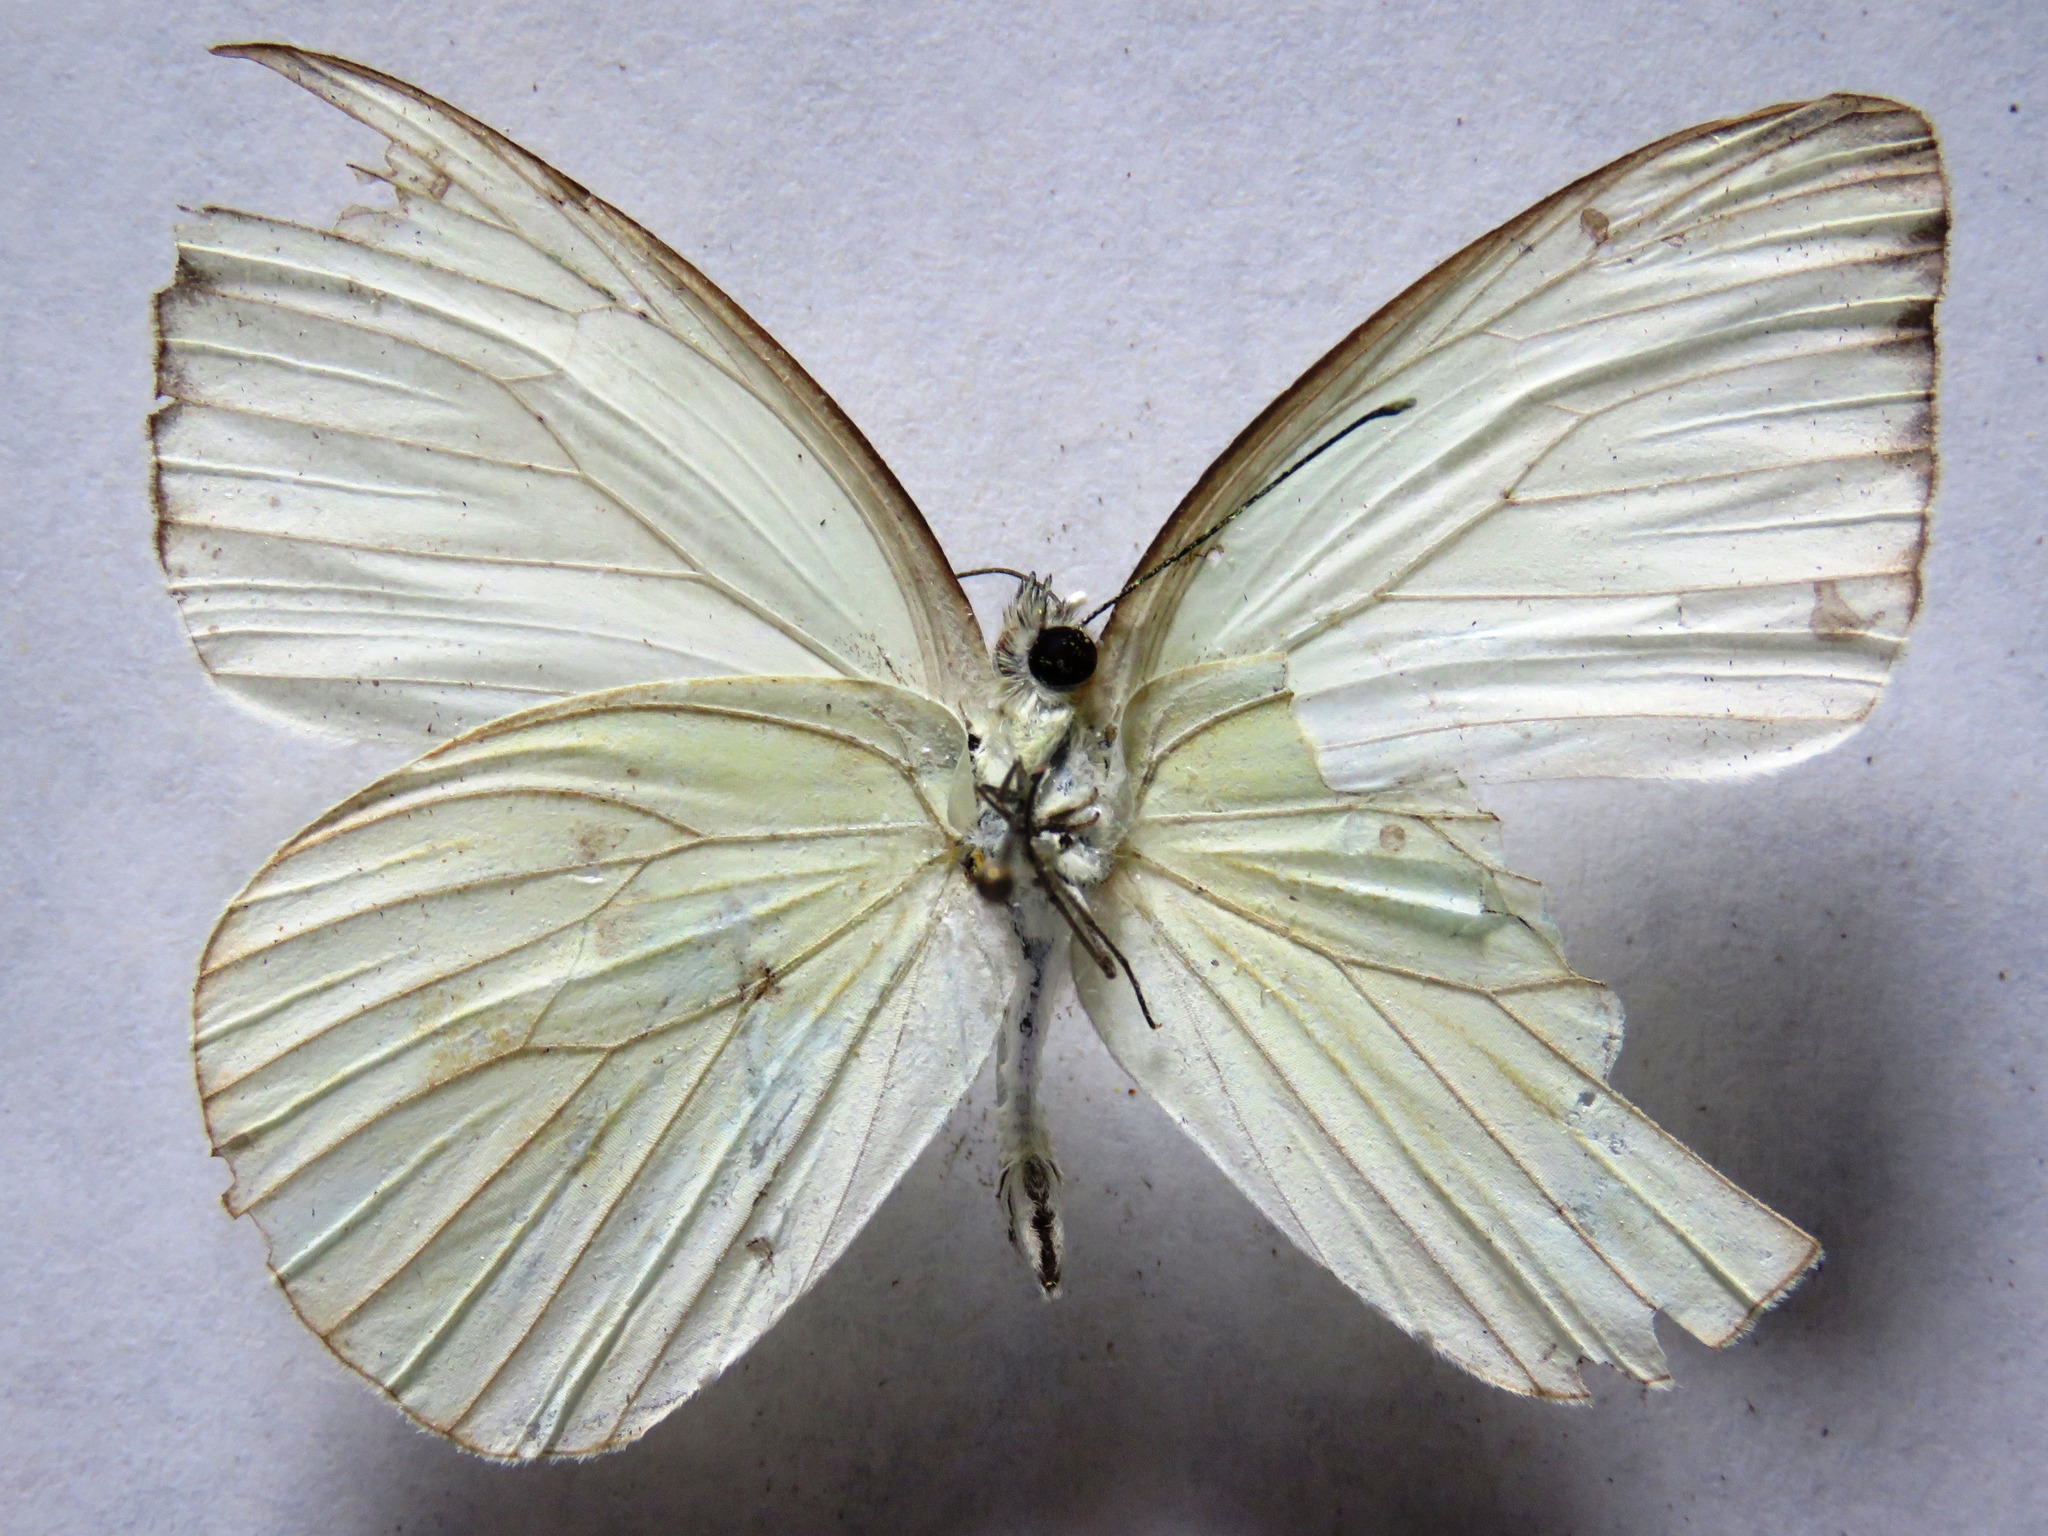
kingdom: Animalia
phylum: Arthropoda
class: Insecta
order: Lepidoptera
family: Pieridae
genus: Ascia
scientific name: Ascia monuste
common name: Great southern white
